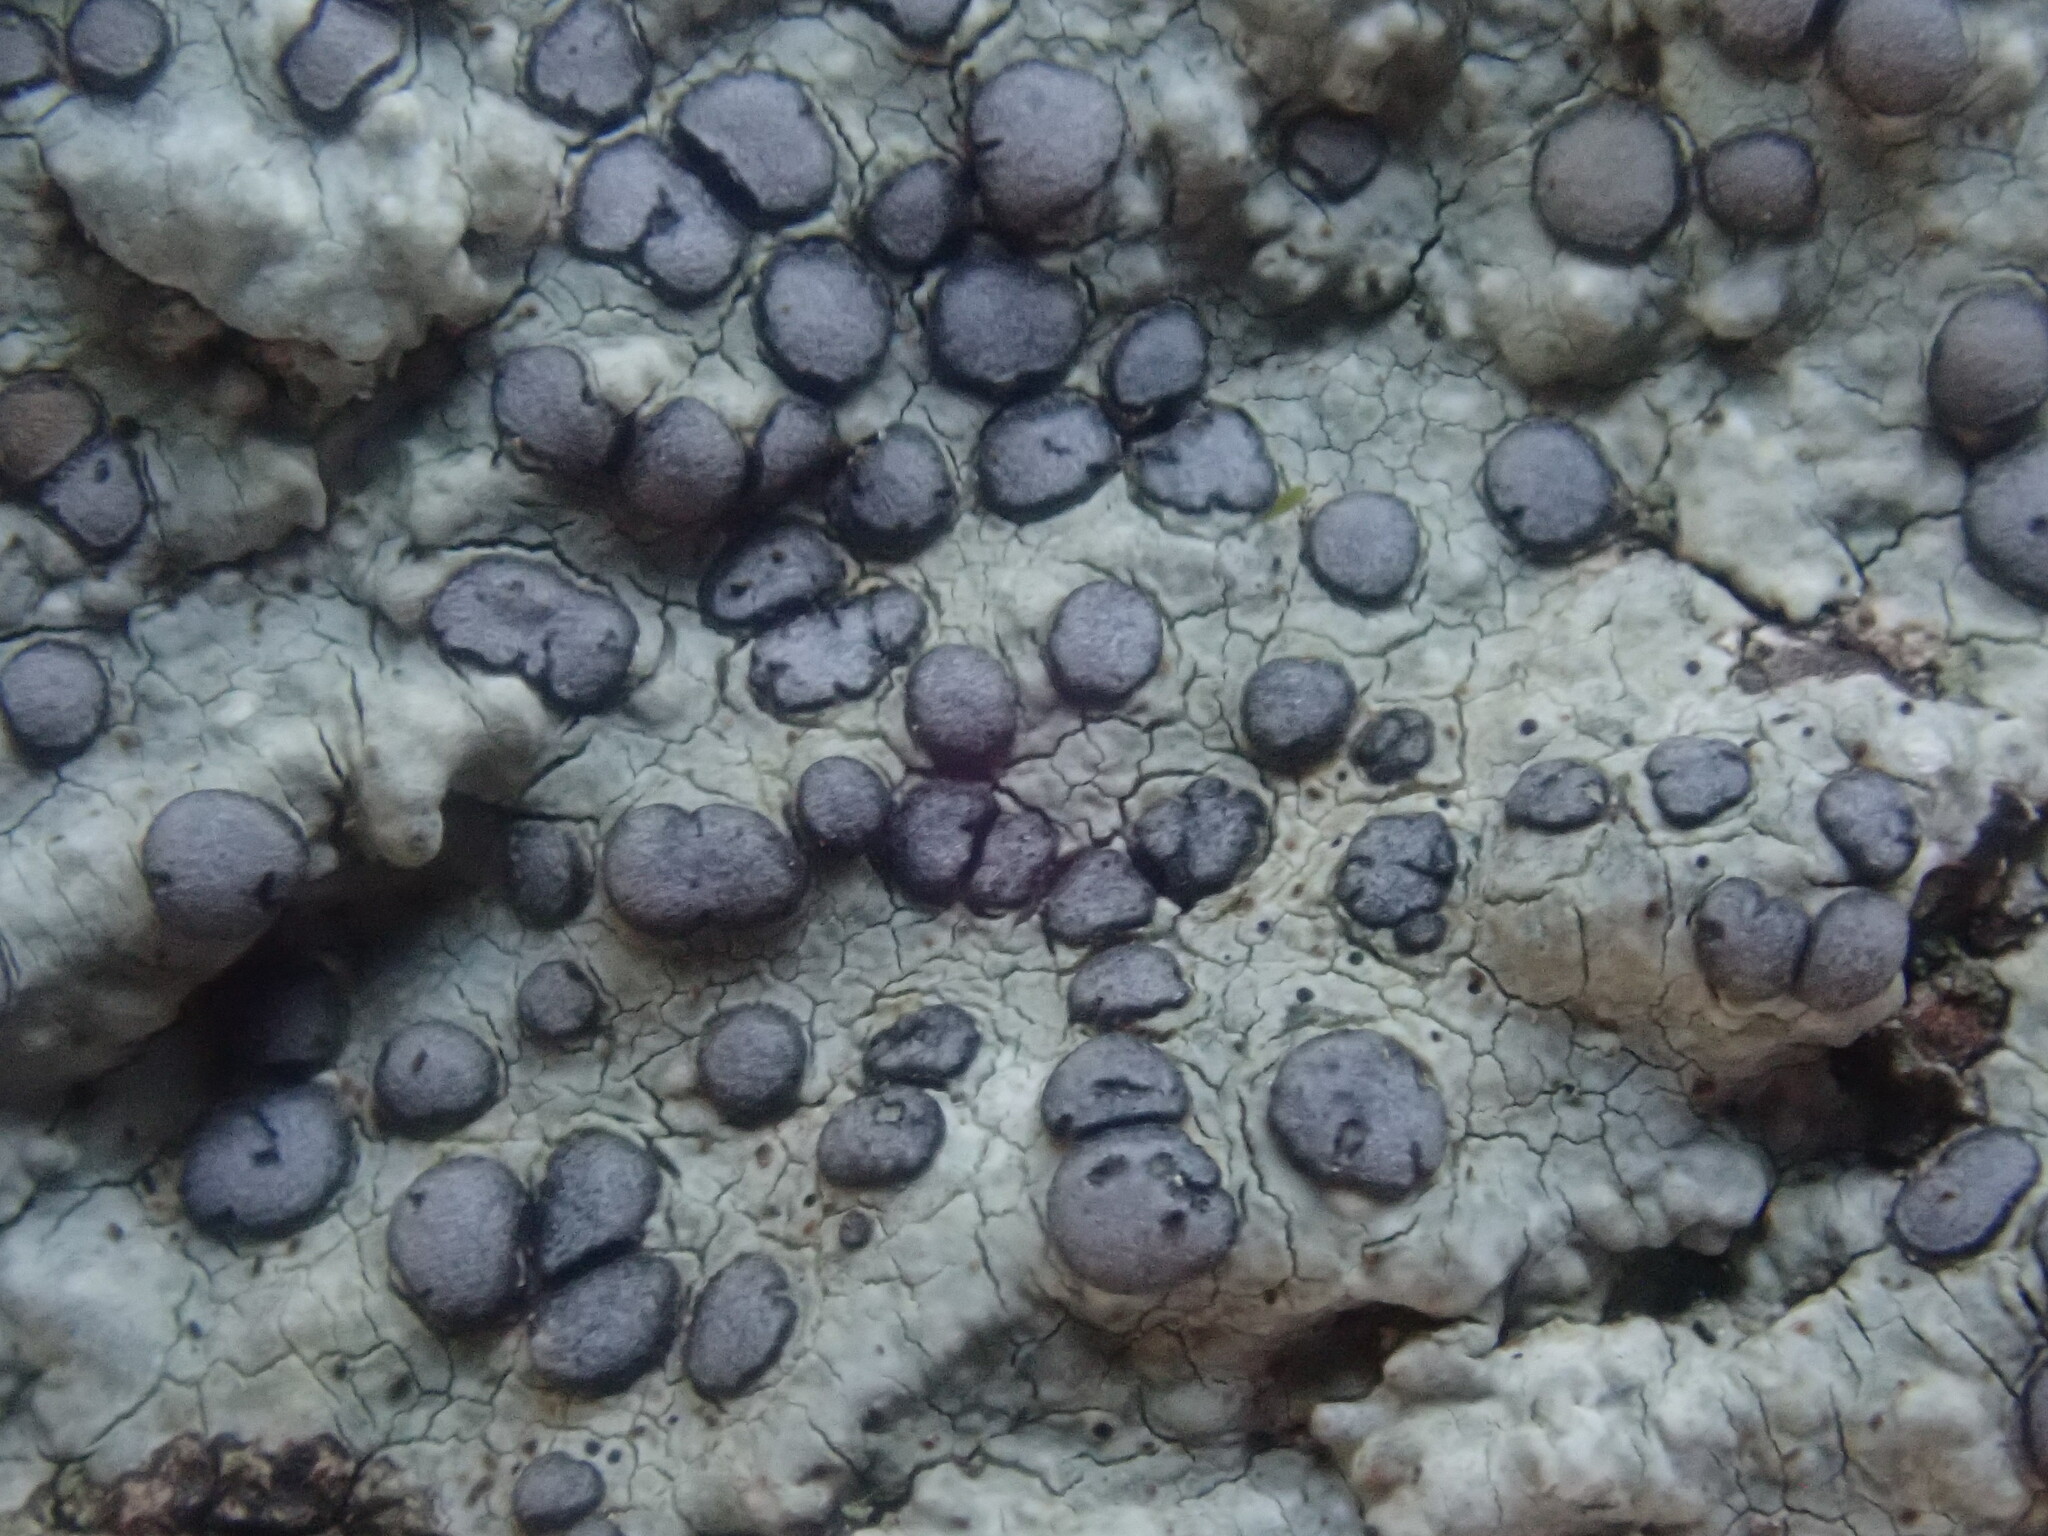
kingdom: Fungi
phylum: Ascomycota
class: Lecanoromycetes
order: Lecideales
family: Lecideaceae
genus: Porpidia
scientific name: Porpidia albocaerulescens
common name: Smokey-eyed boulder lichen
